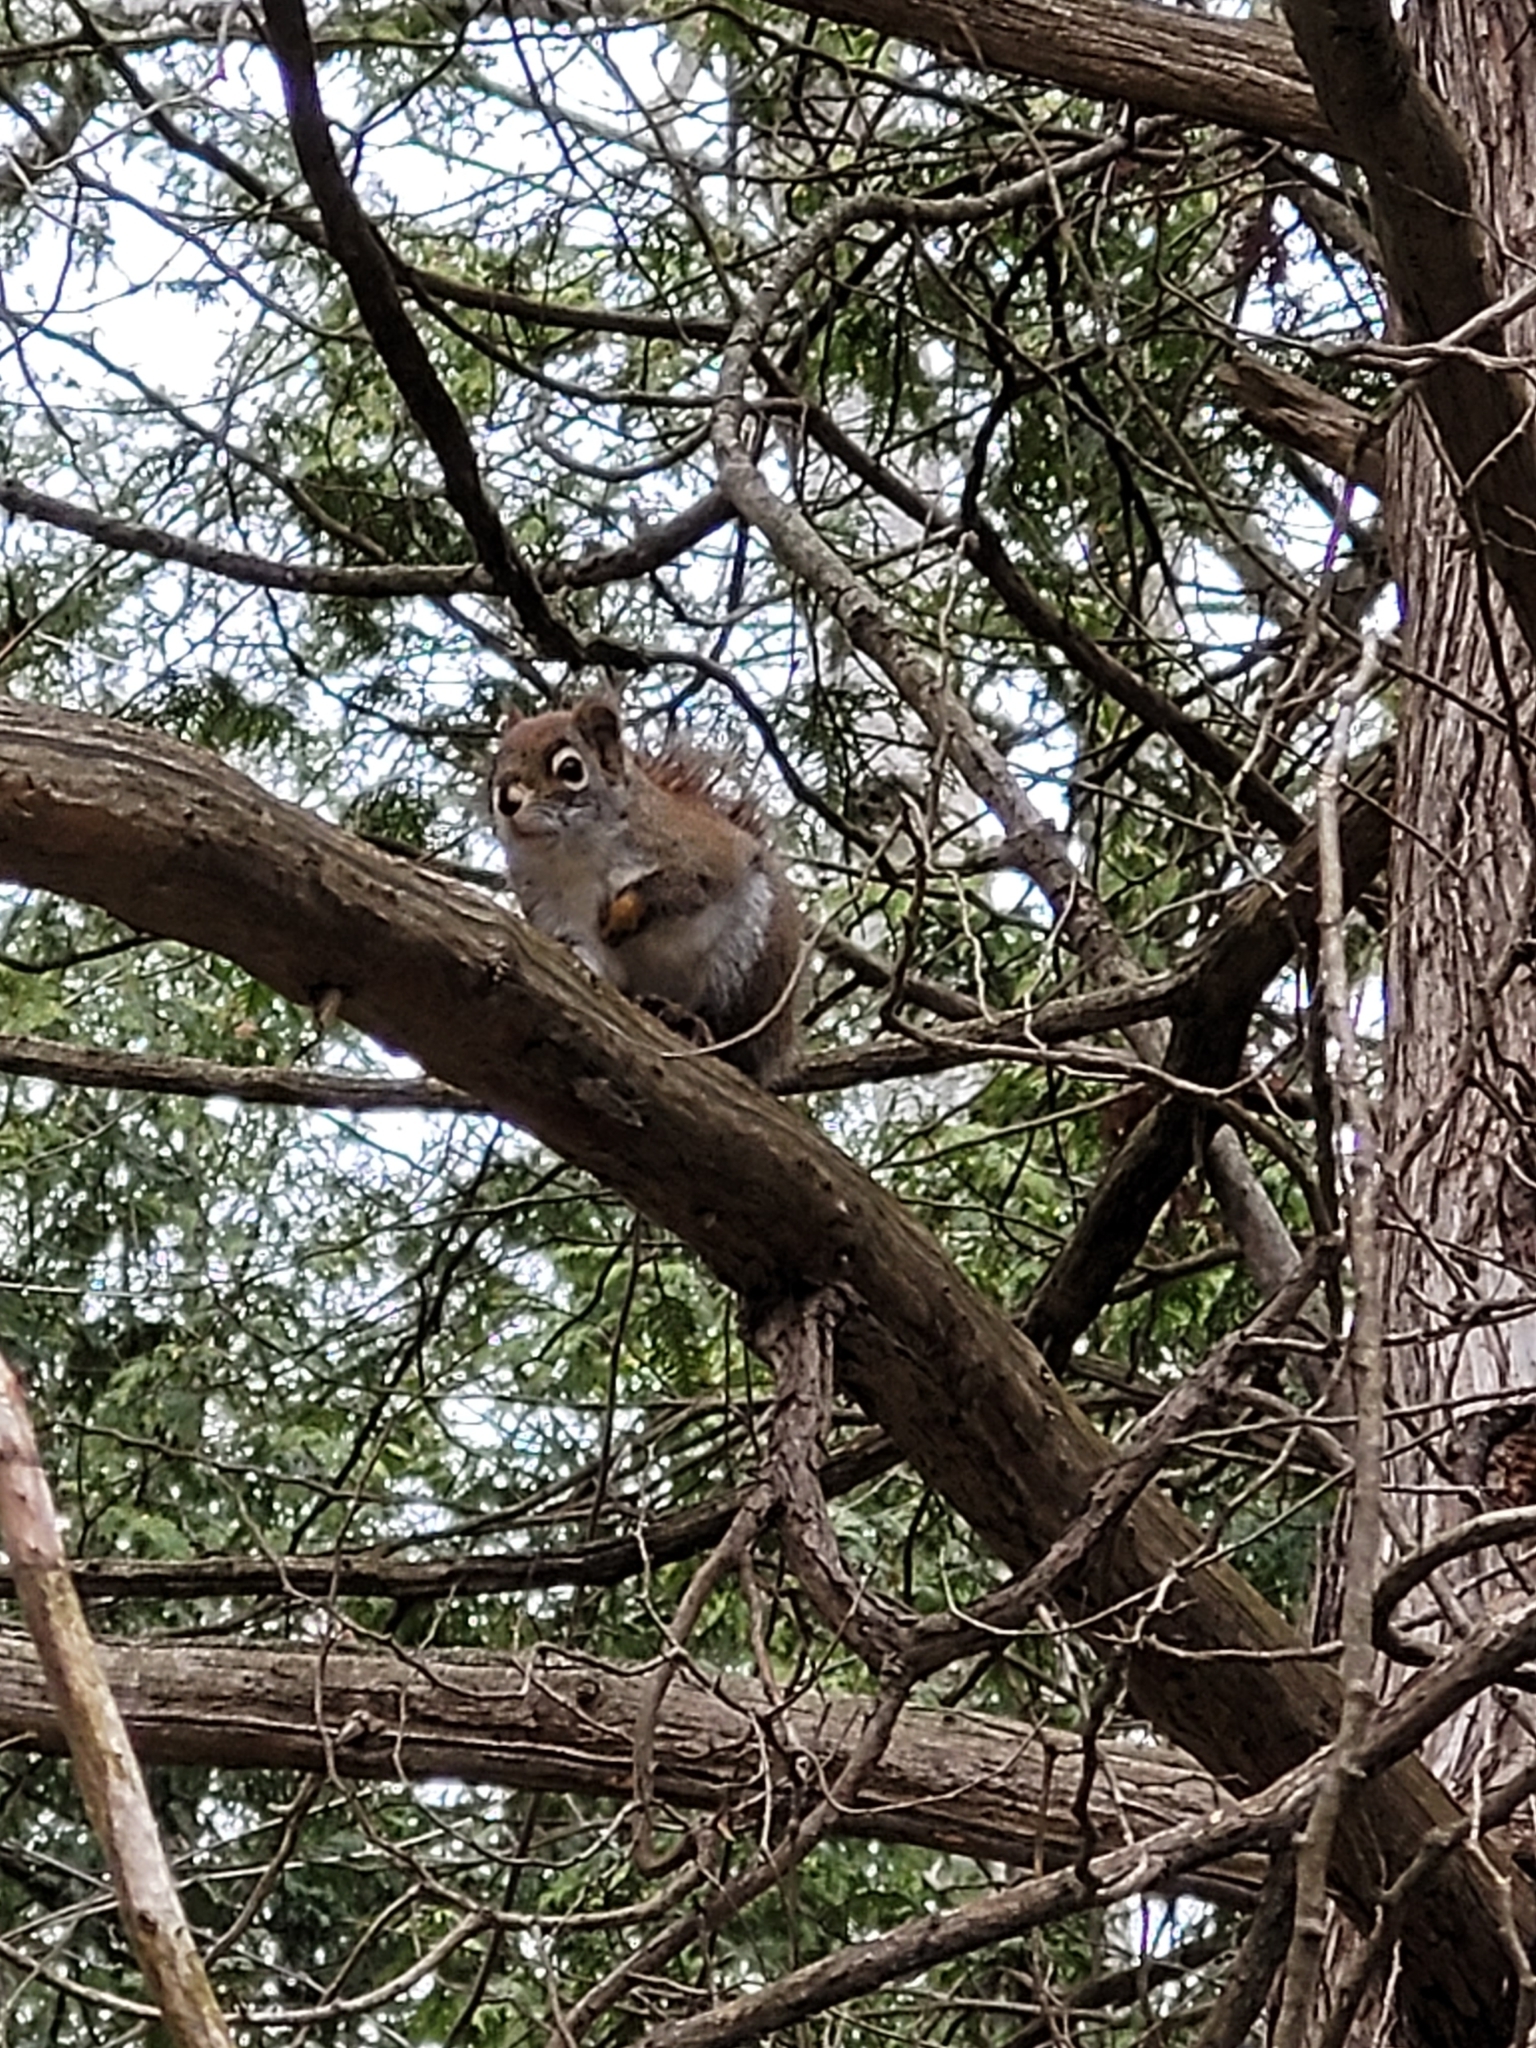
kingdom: Animalia
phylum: Chordata
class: Mammalia
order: Rodentia
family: Sciuridae
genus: Tamiasciurus
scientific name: Tamiasciurus hudsonicus
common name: Red squirrel
